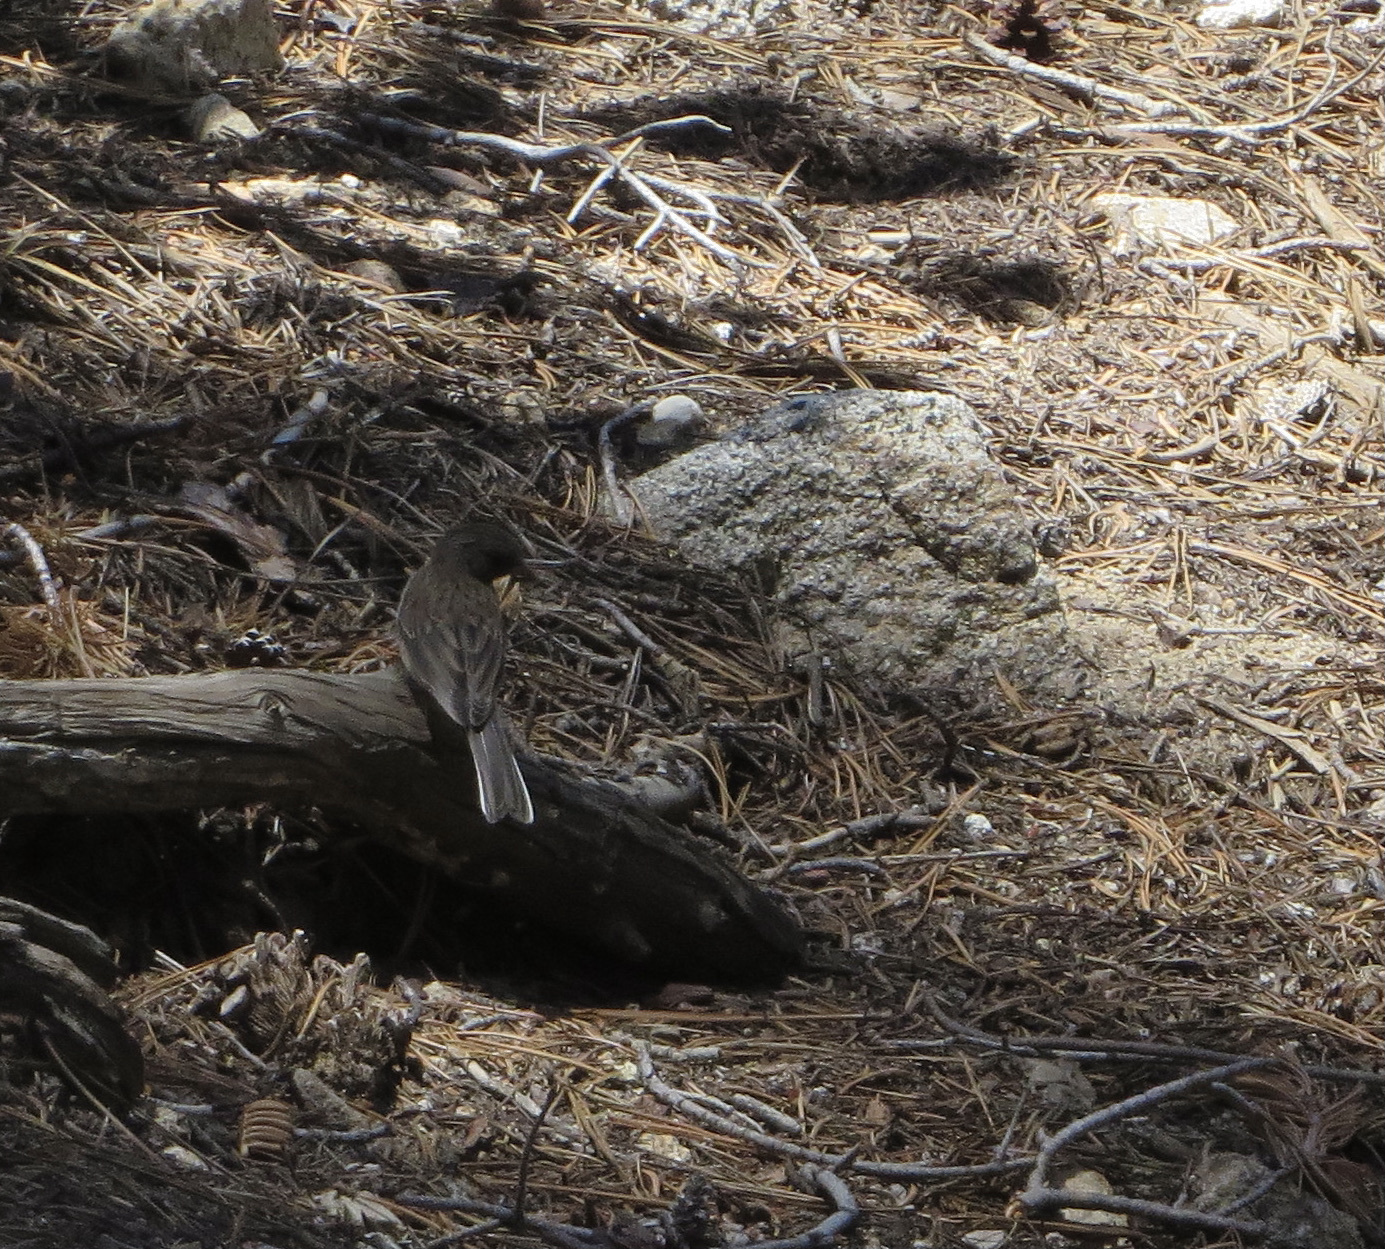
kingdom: Animalia
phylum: Chordata
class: Aves
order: Passeriformes
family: Passerellidae
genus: Junco
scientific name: Junco hyemalis
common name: Dark-eyed junco
